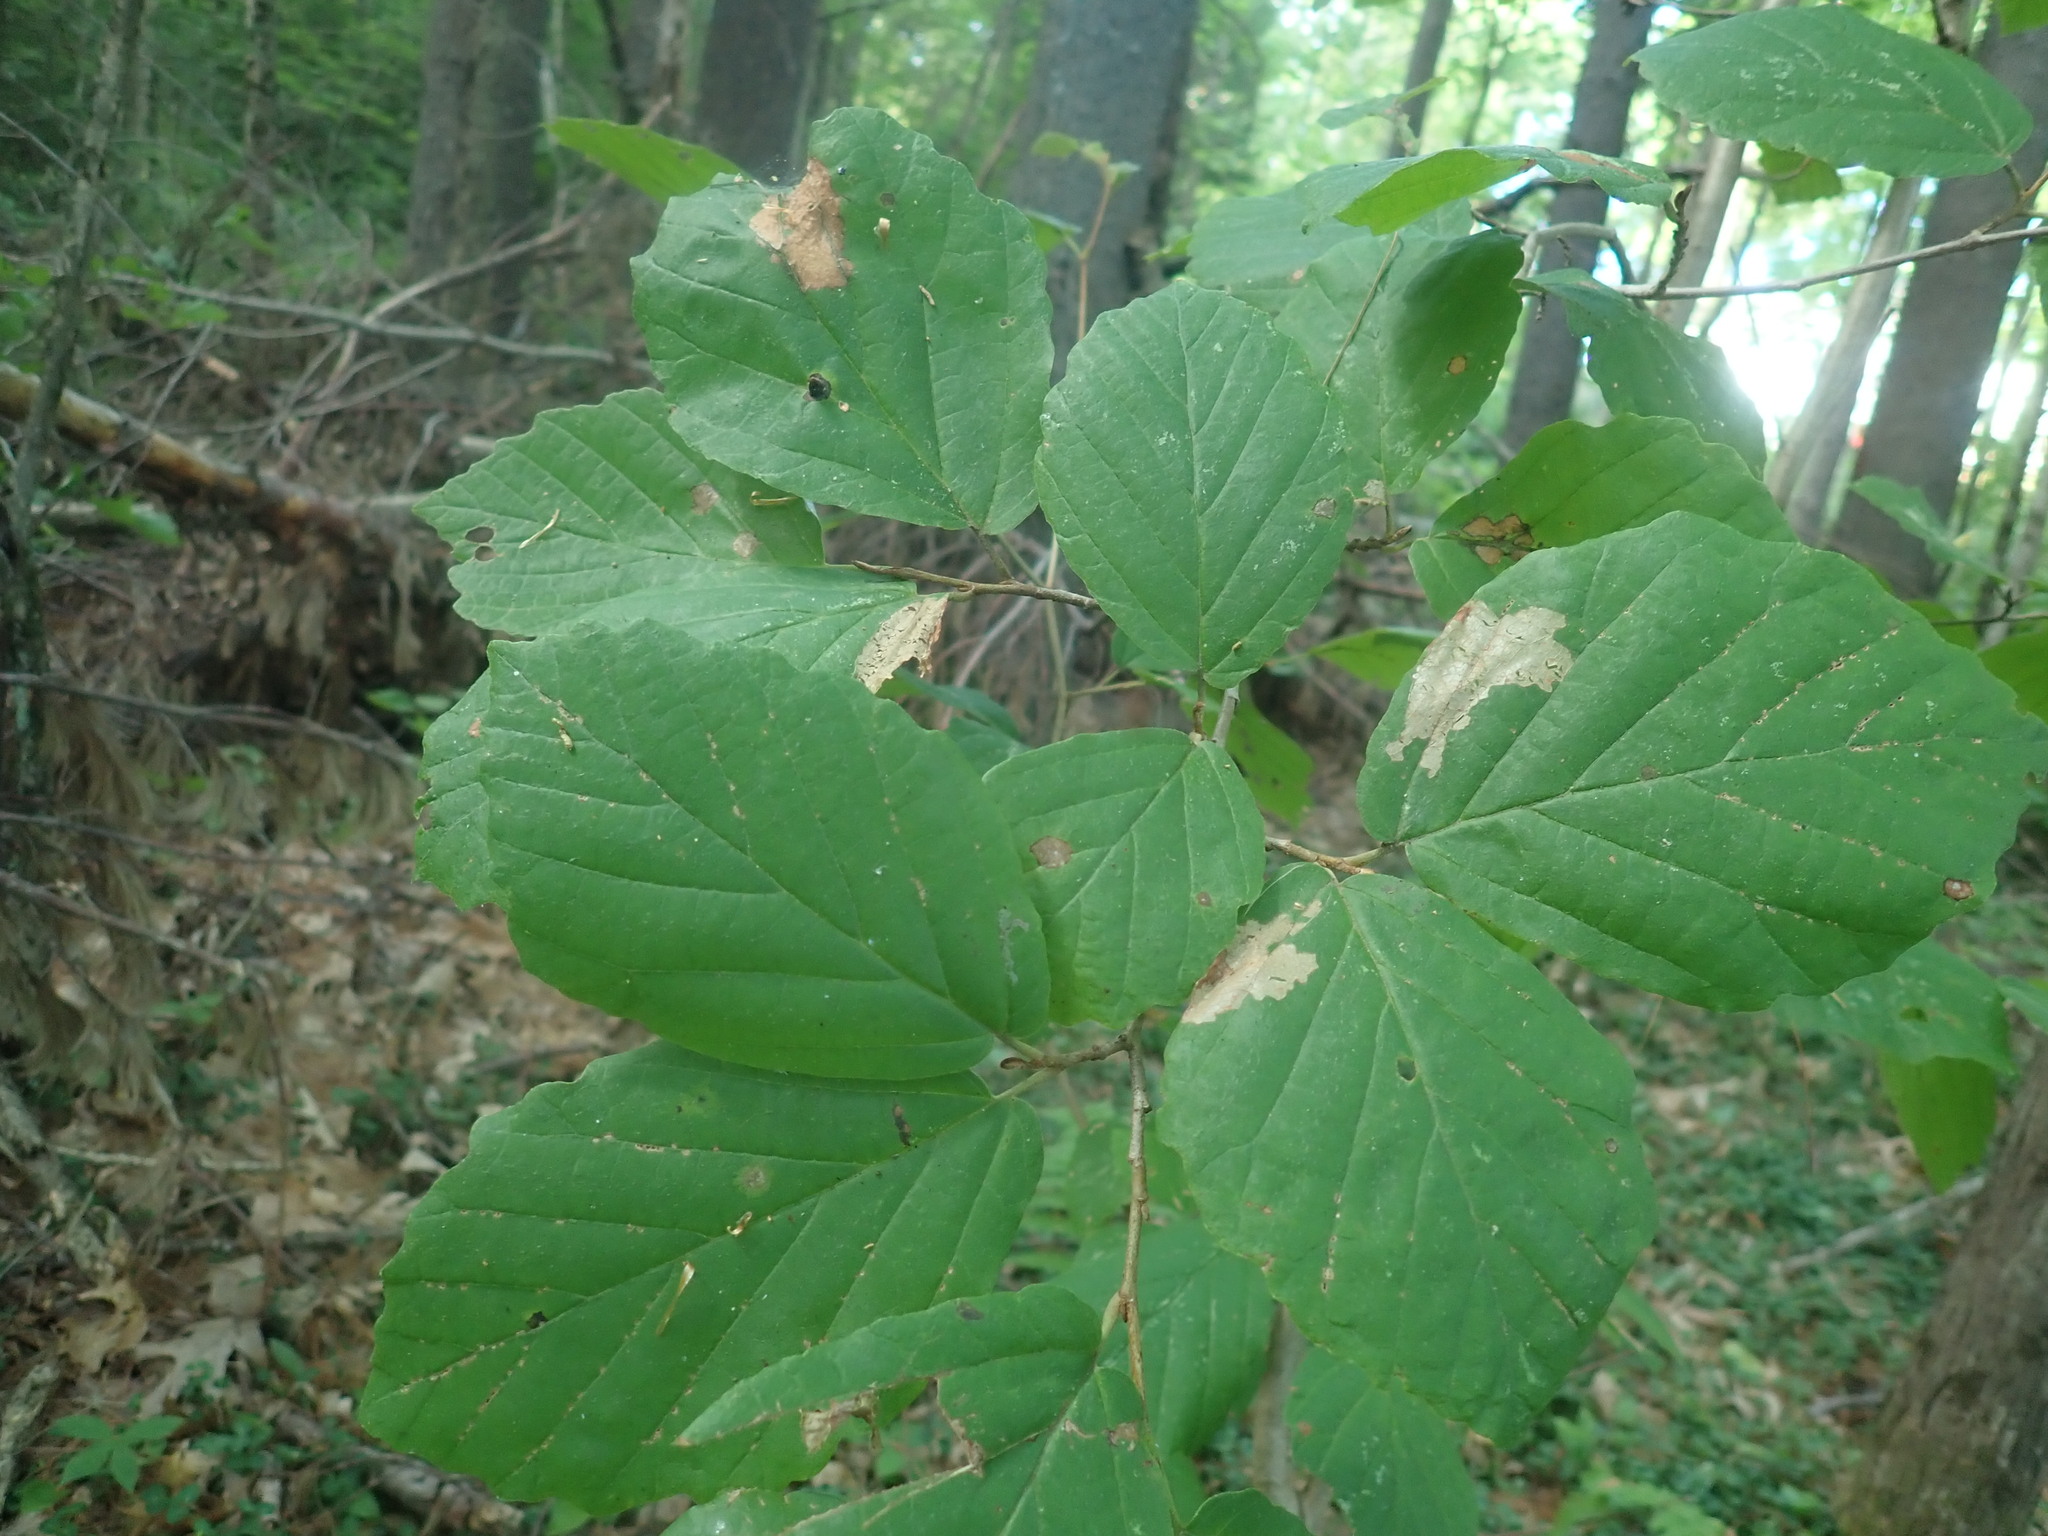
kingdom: Plantae
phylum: Tracheophyta
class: Magnoliopsida
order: Saxifragales
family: Hamamelidaceae
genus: Hamamelis
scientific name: Hamamelis virginiana
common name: Witch-hazel
